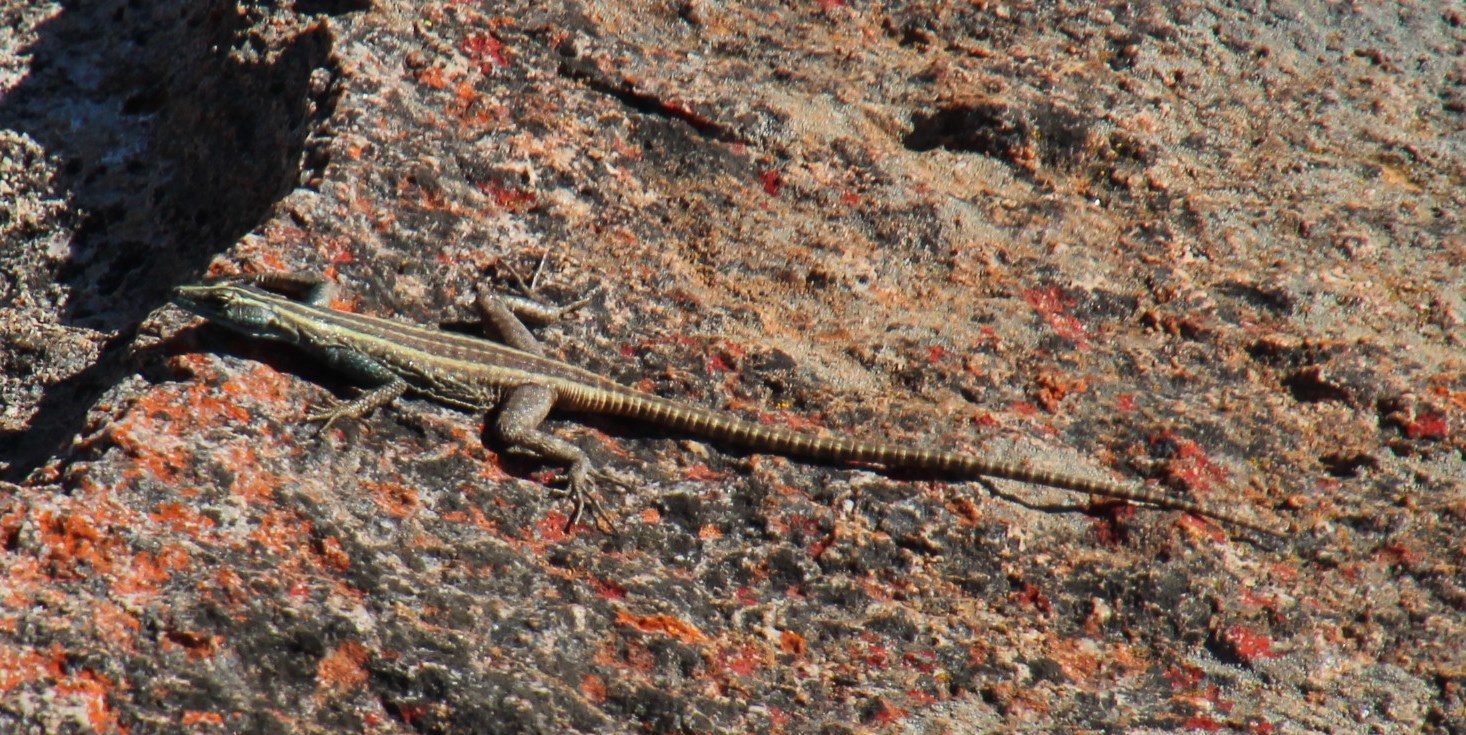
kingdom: Animalia
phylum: Chordata
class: Squamata
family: Cordylidae
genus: Platysaurus
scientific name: Platysaurus capensis
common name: Namaqua flat lizard
